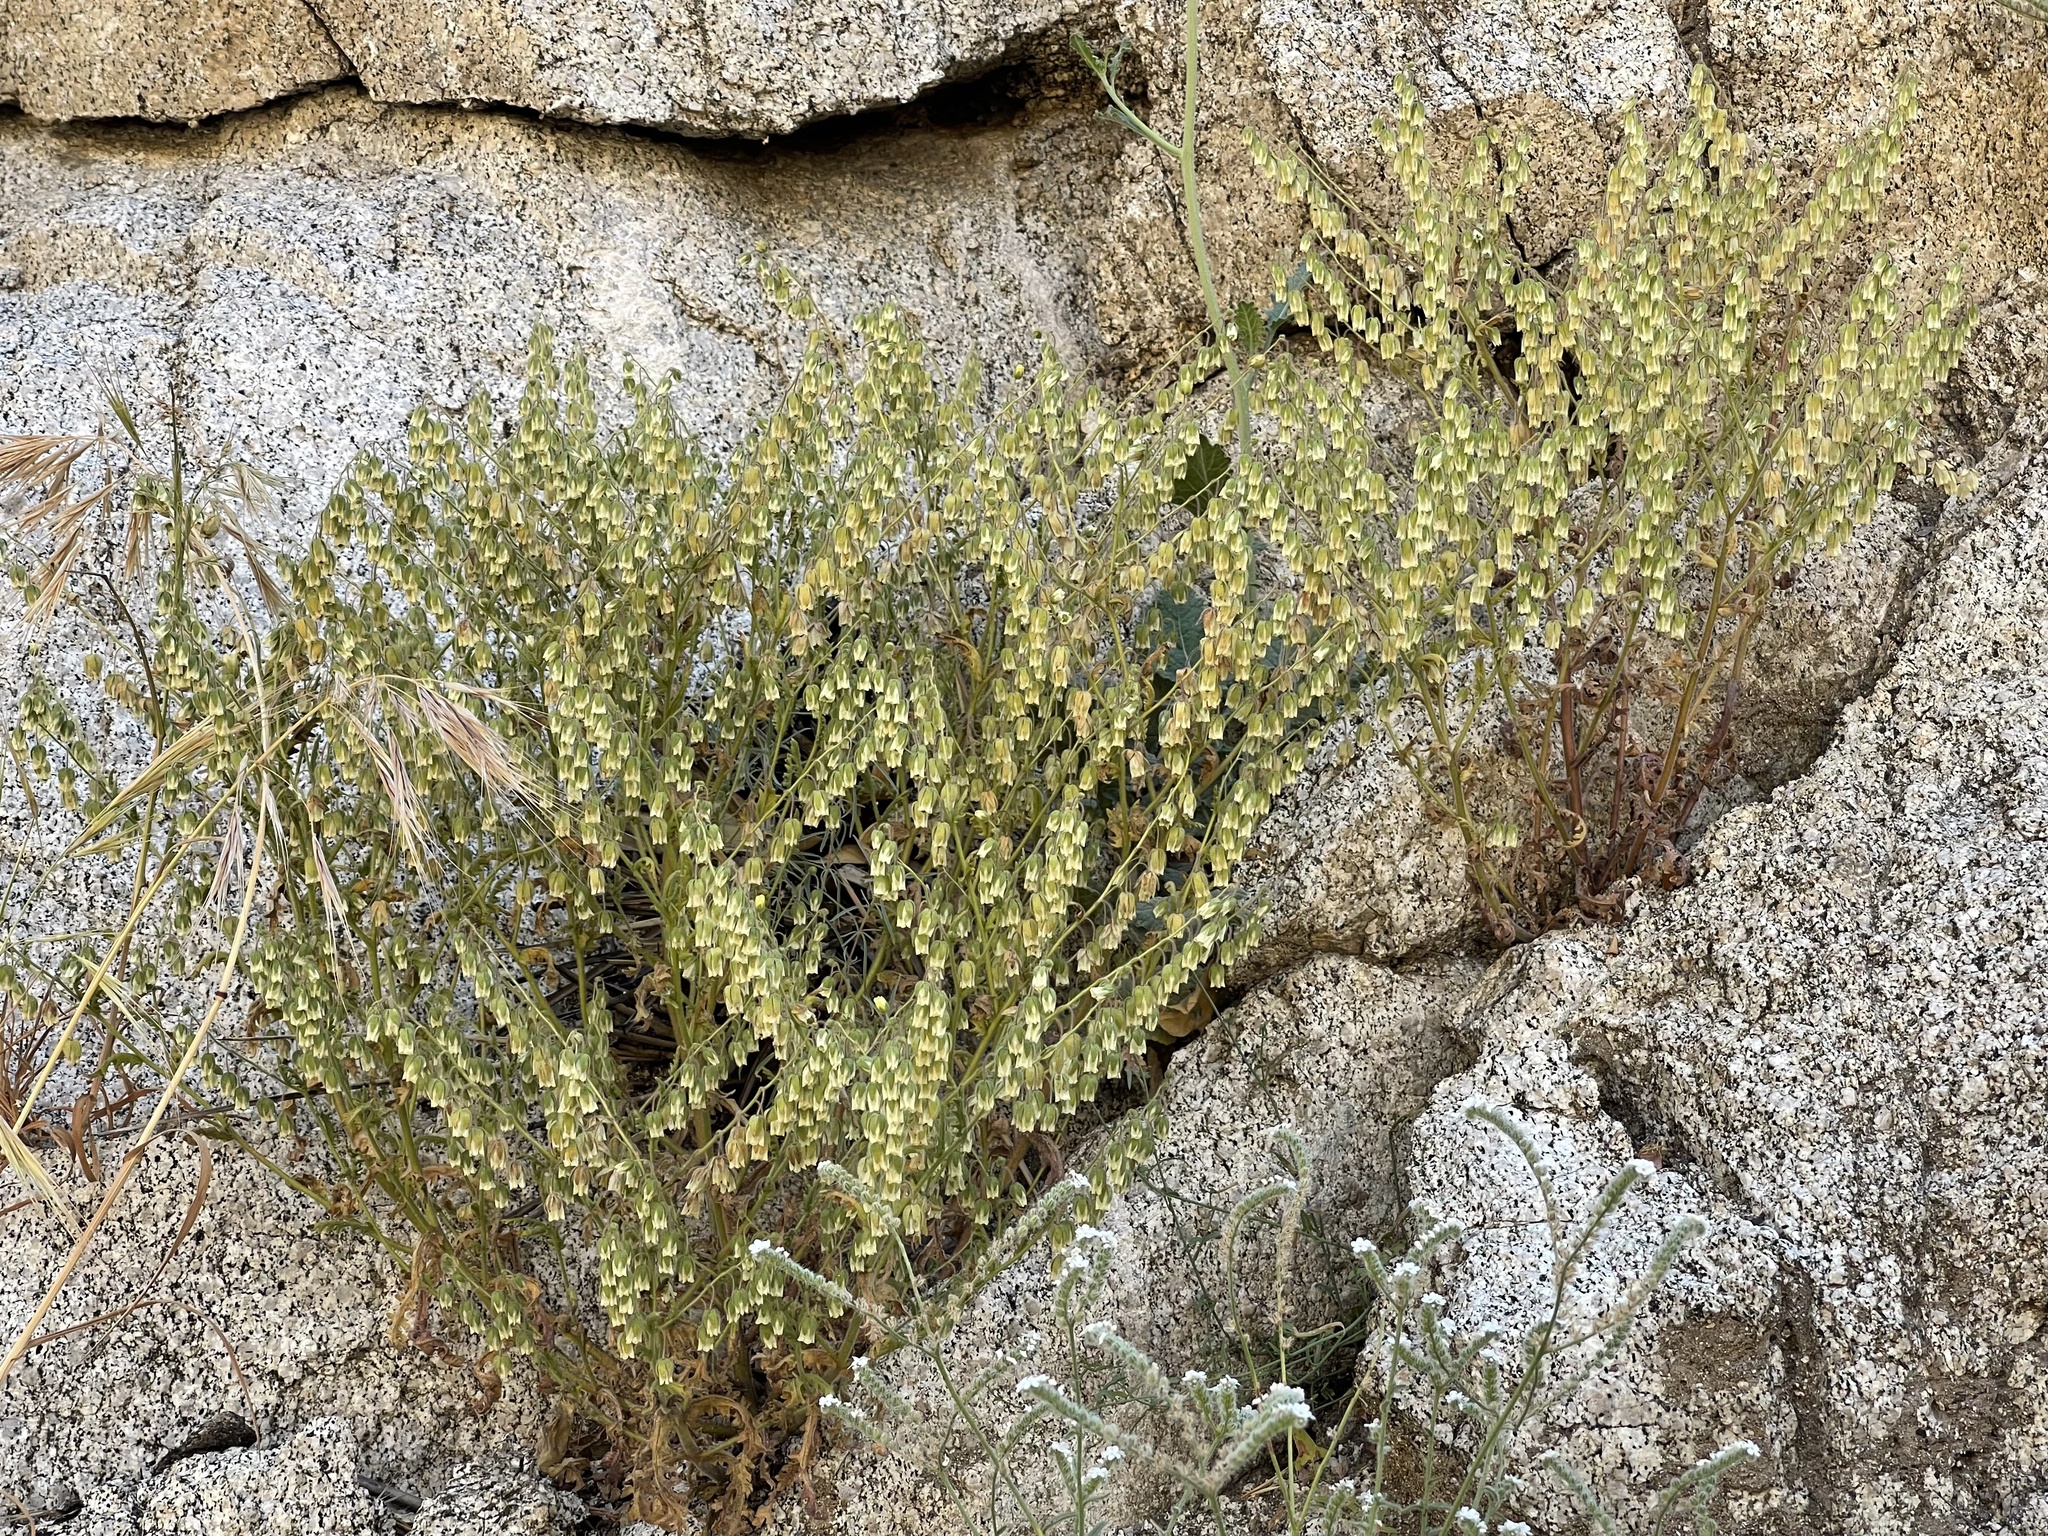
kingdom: Plantae
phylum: Tracheophyta
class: Magnoliopsida
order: Boraginales
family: Hydrophyllaceae
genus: Emmenanthe
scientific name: Emmenanthe penduliflora
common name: Whispering-bells
